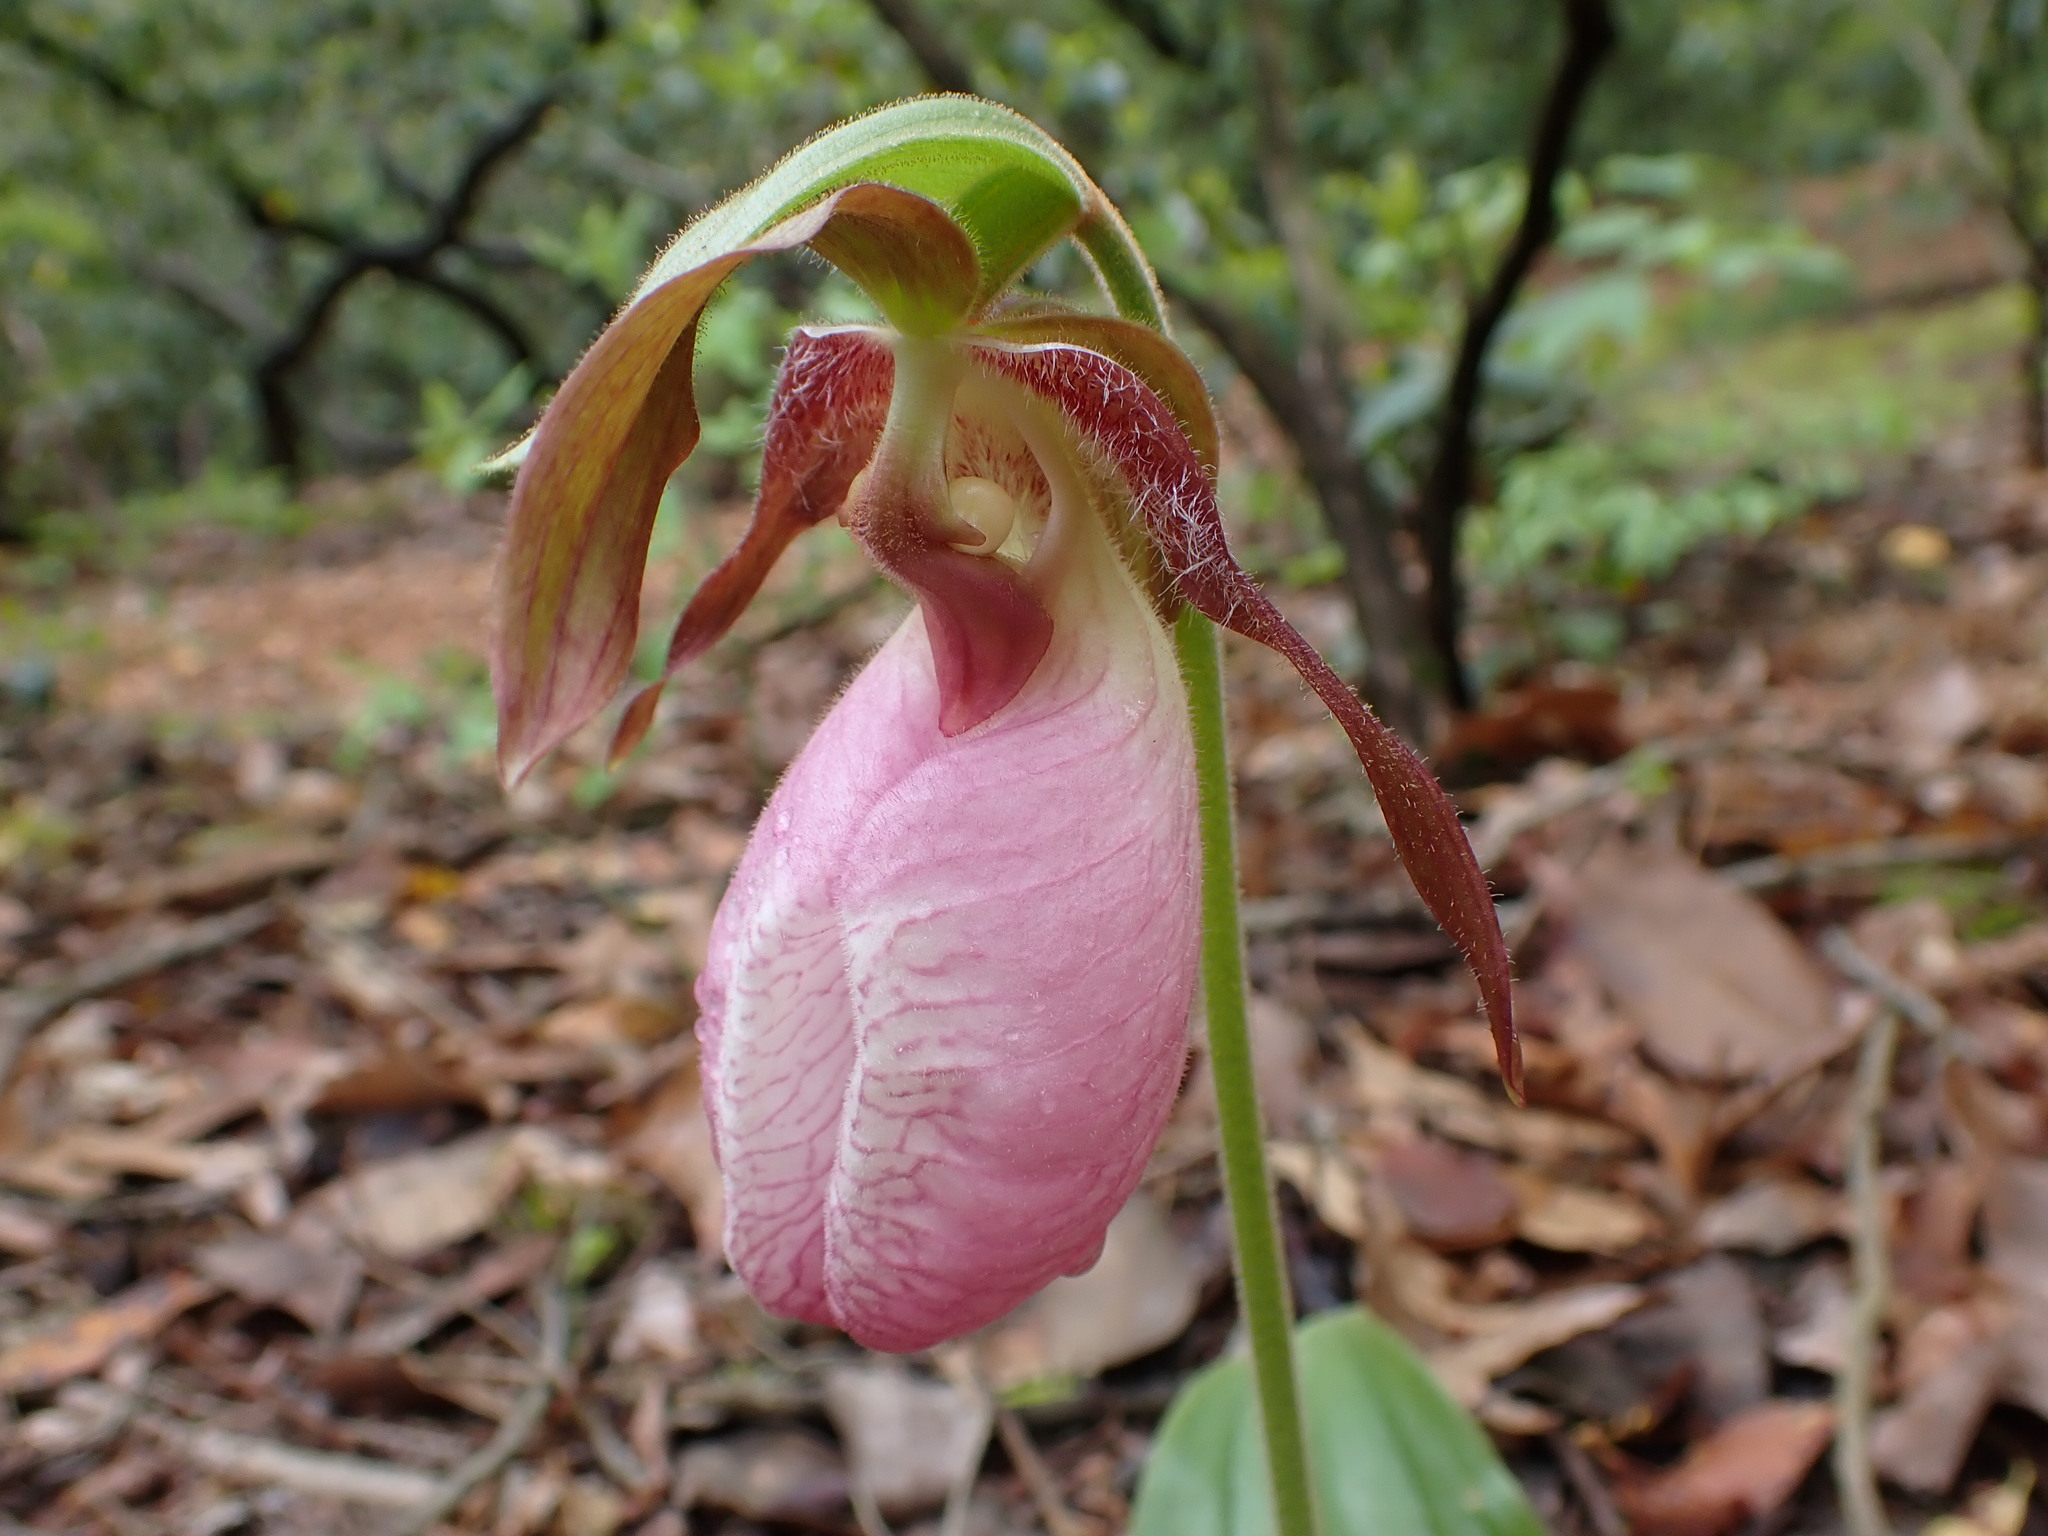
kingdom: Plantae
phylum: Tracheophyta
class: Liliopsida
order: Asparagales
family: Orchidaceae
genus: Cypripedium
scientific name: Cypripedium acaule
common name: Pink lady's-slipper
